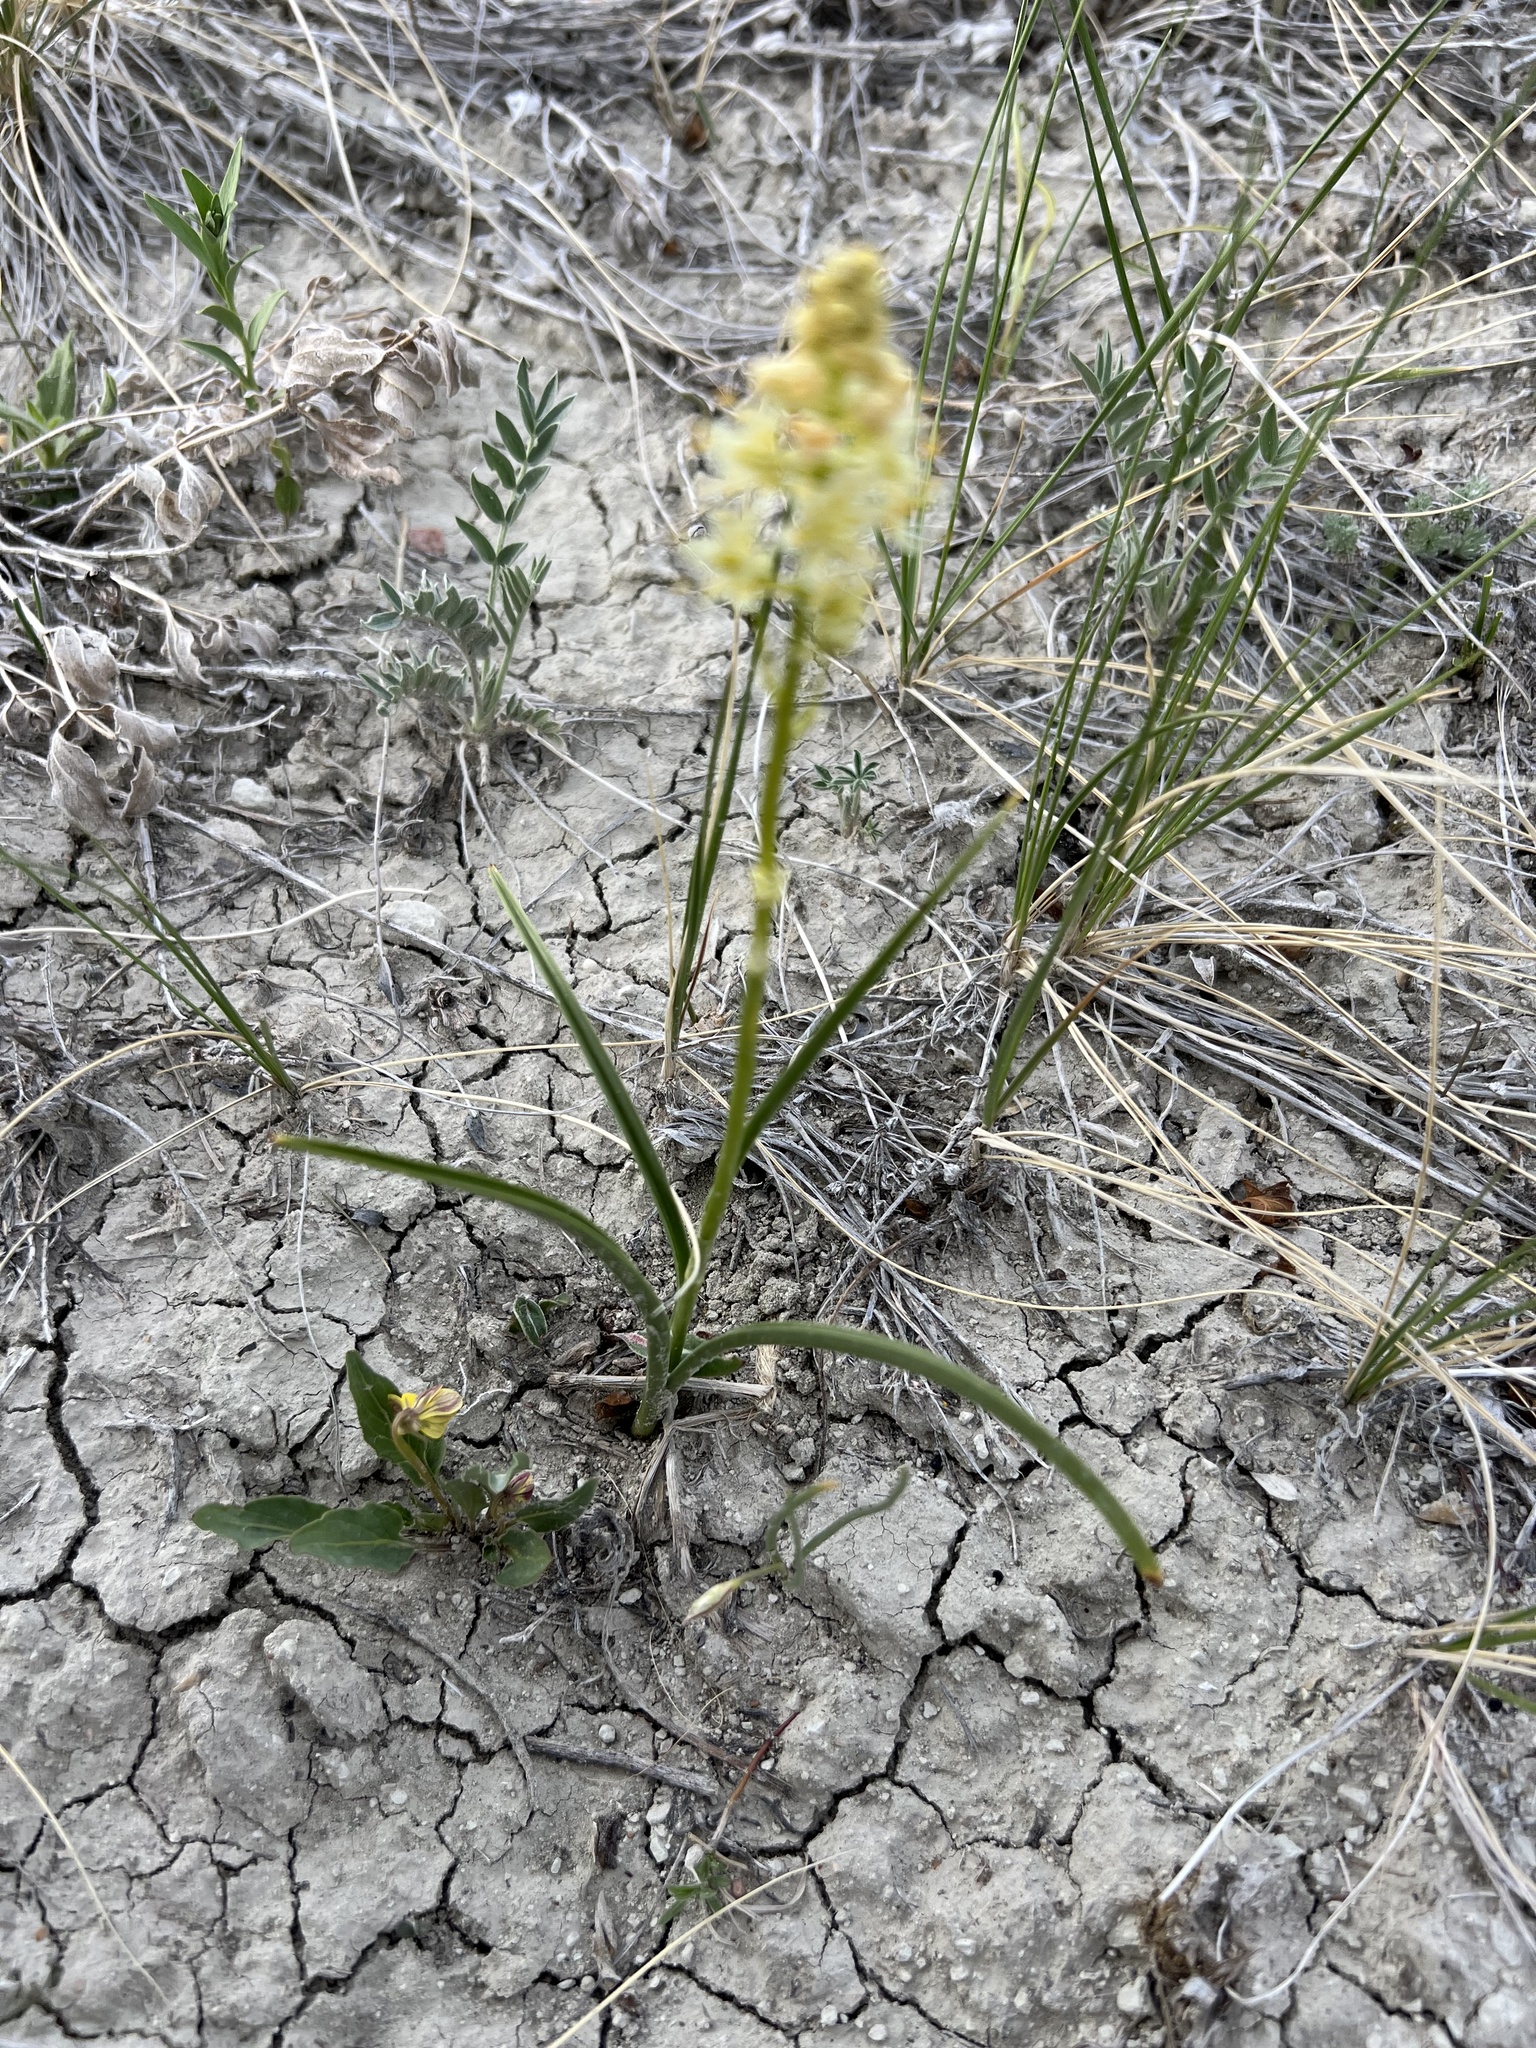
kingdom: Plantae
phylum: Tracheophyta
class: Liliopsida
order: Liliales
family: Melanthiaceae
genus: Toxicoscordion
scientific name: Toxicoscordion paniculatum
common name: Foothill death camas
